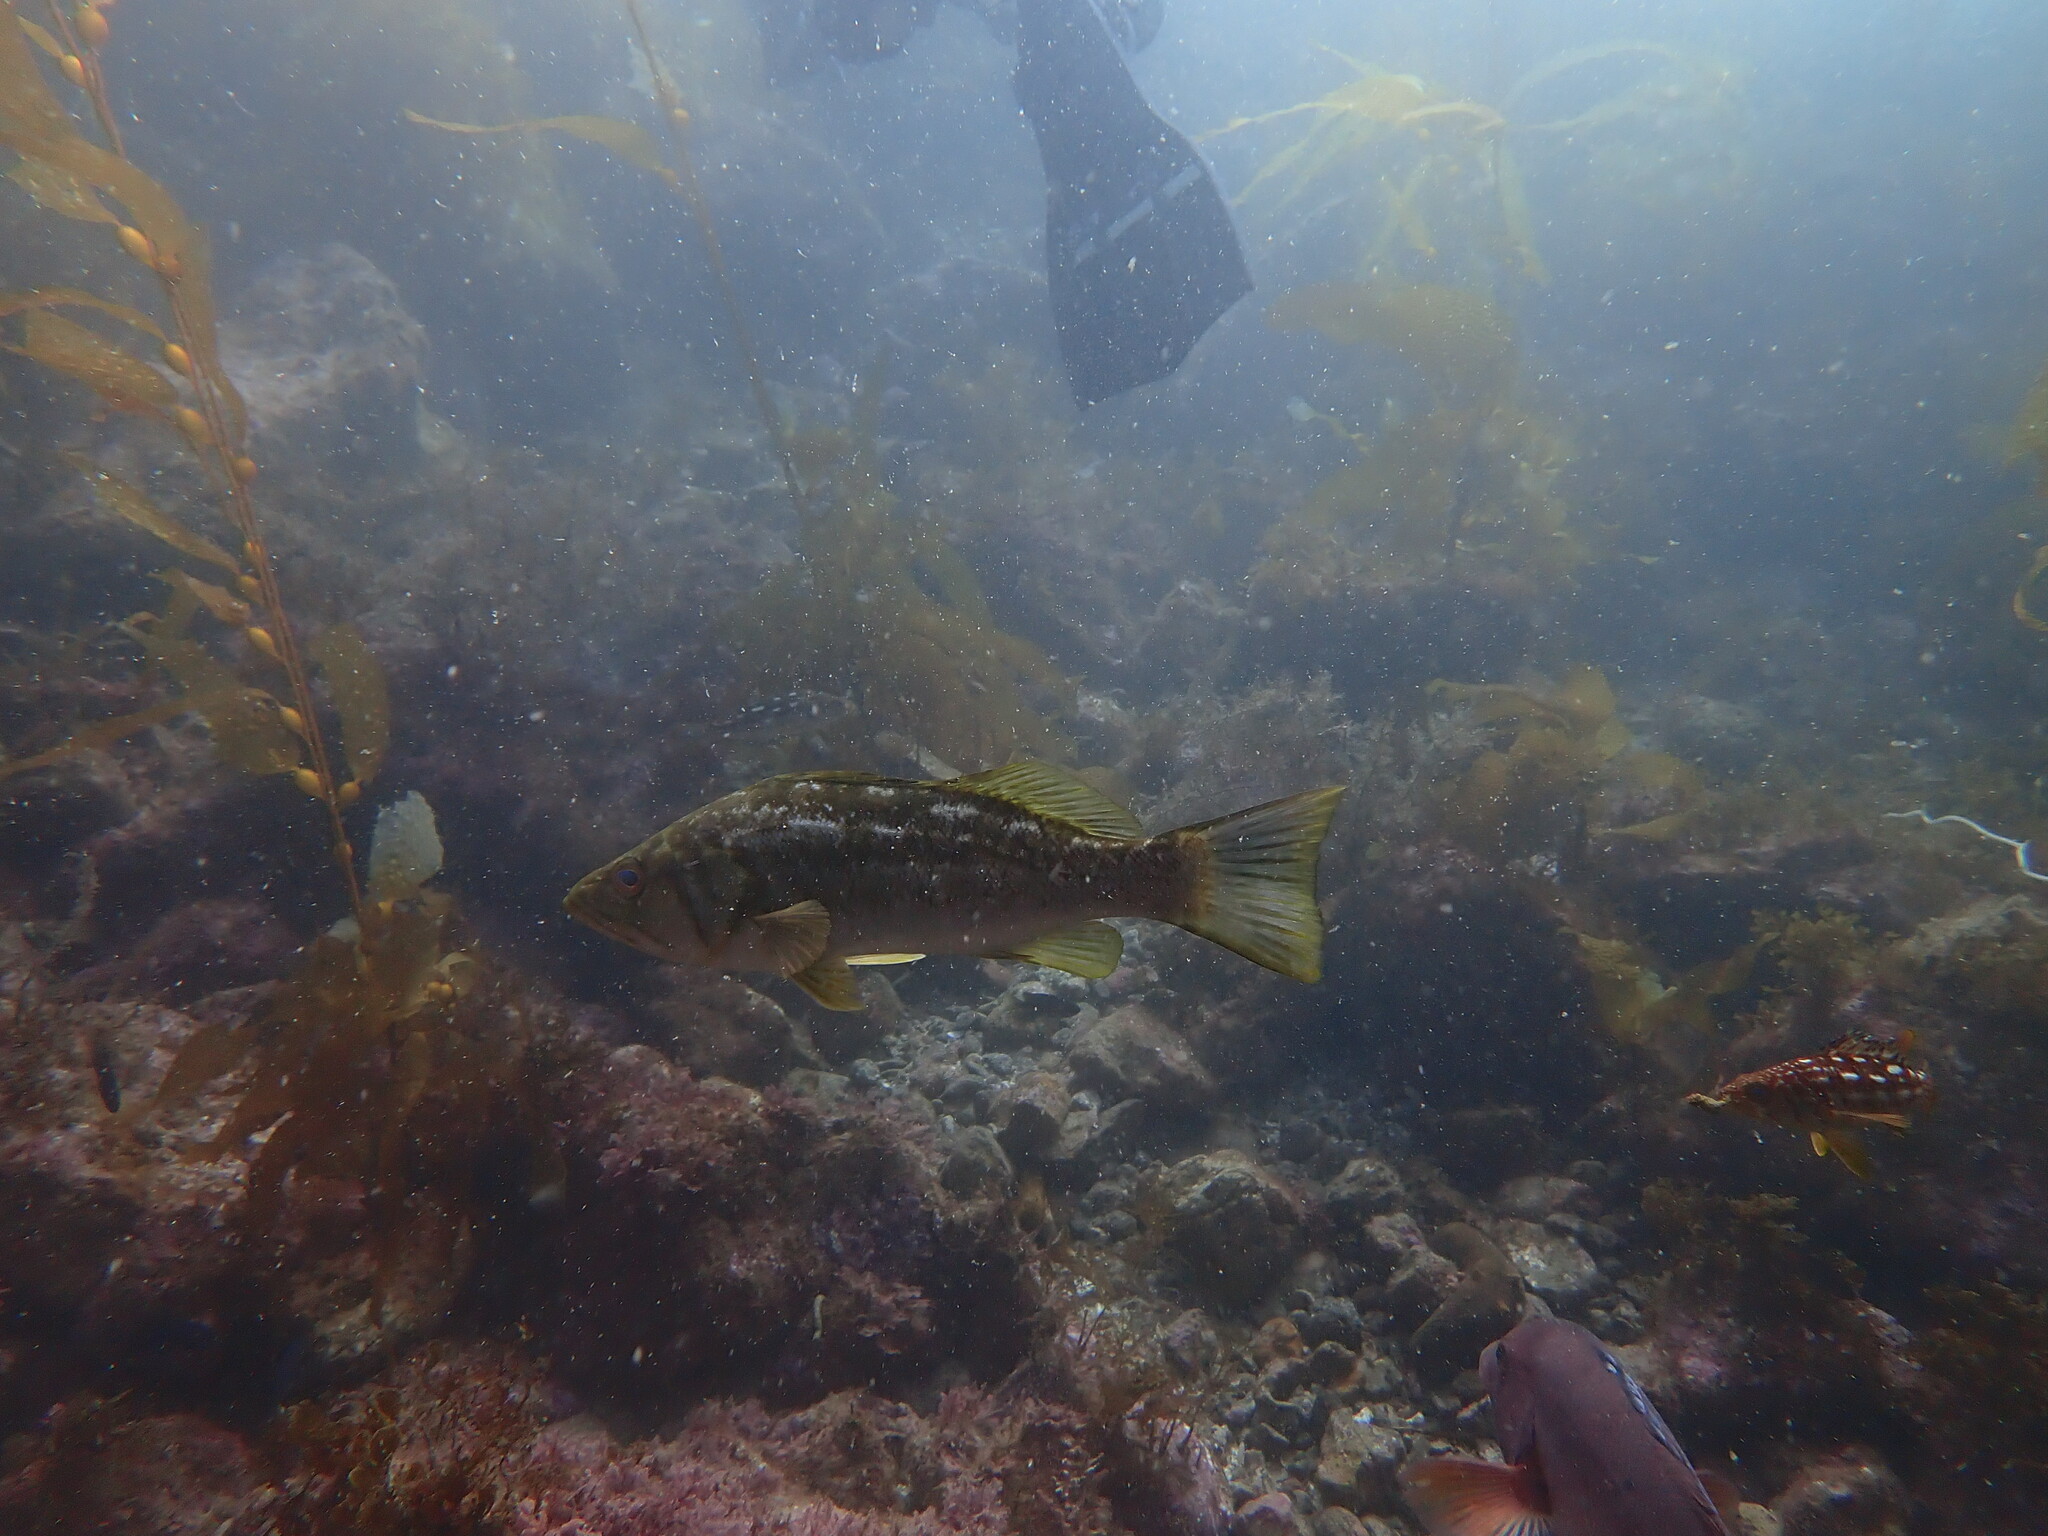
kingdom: Animalia
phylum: Chordata
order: Perciformes
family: Serranidae
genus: Paralabrax
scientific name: Paralabrax clathratus
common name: Kelp bass
